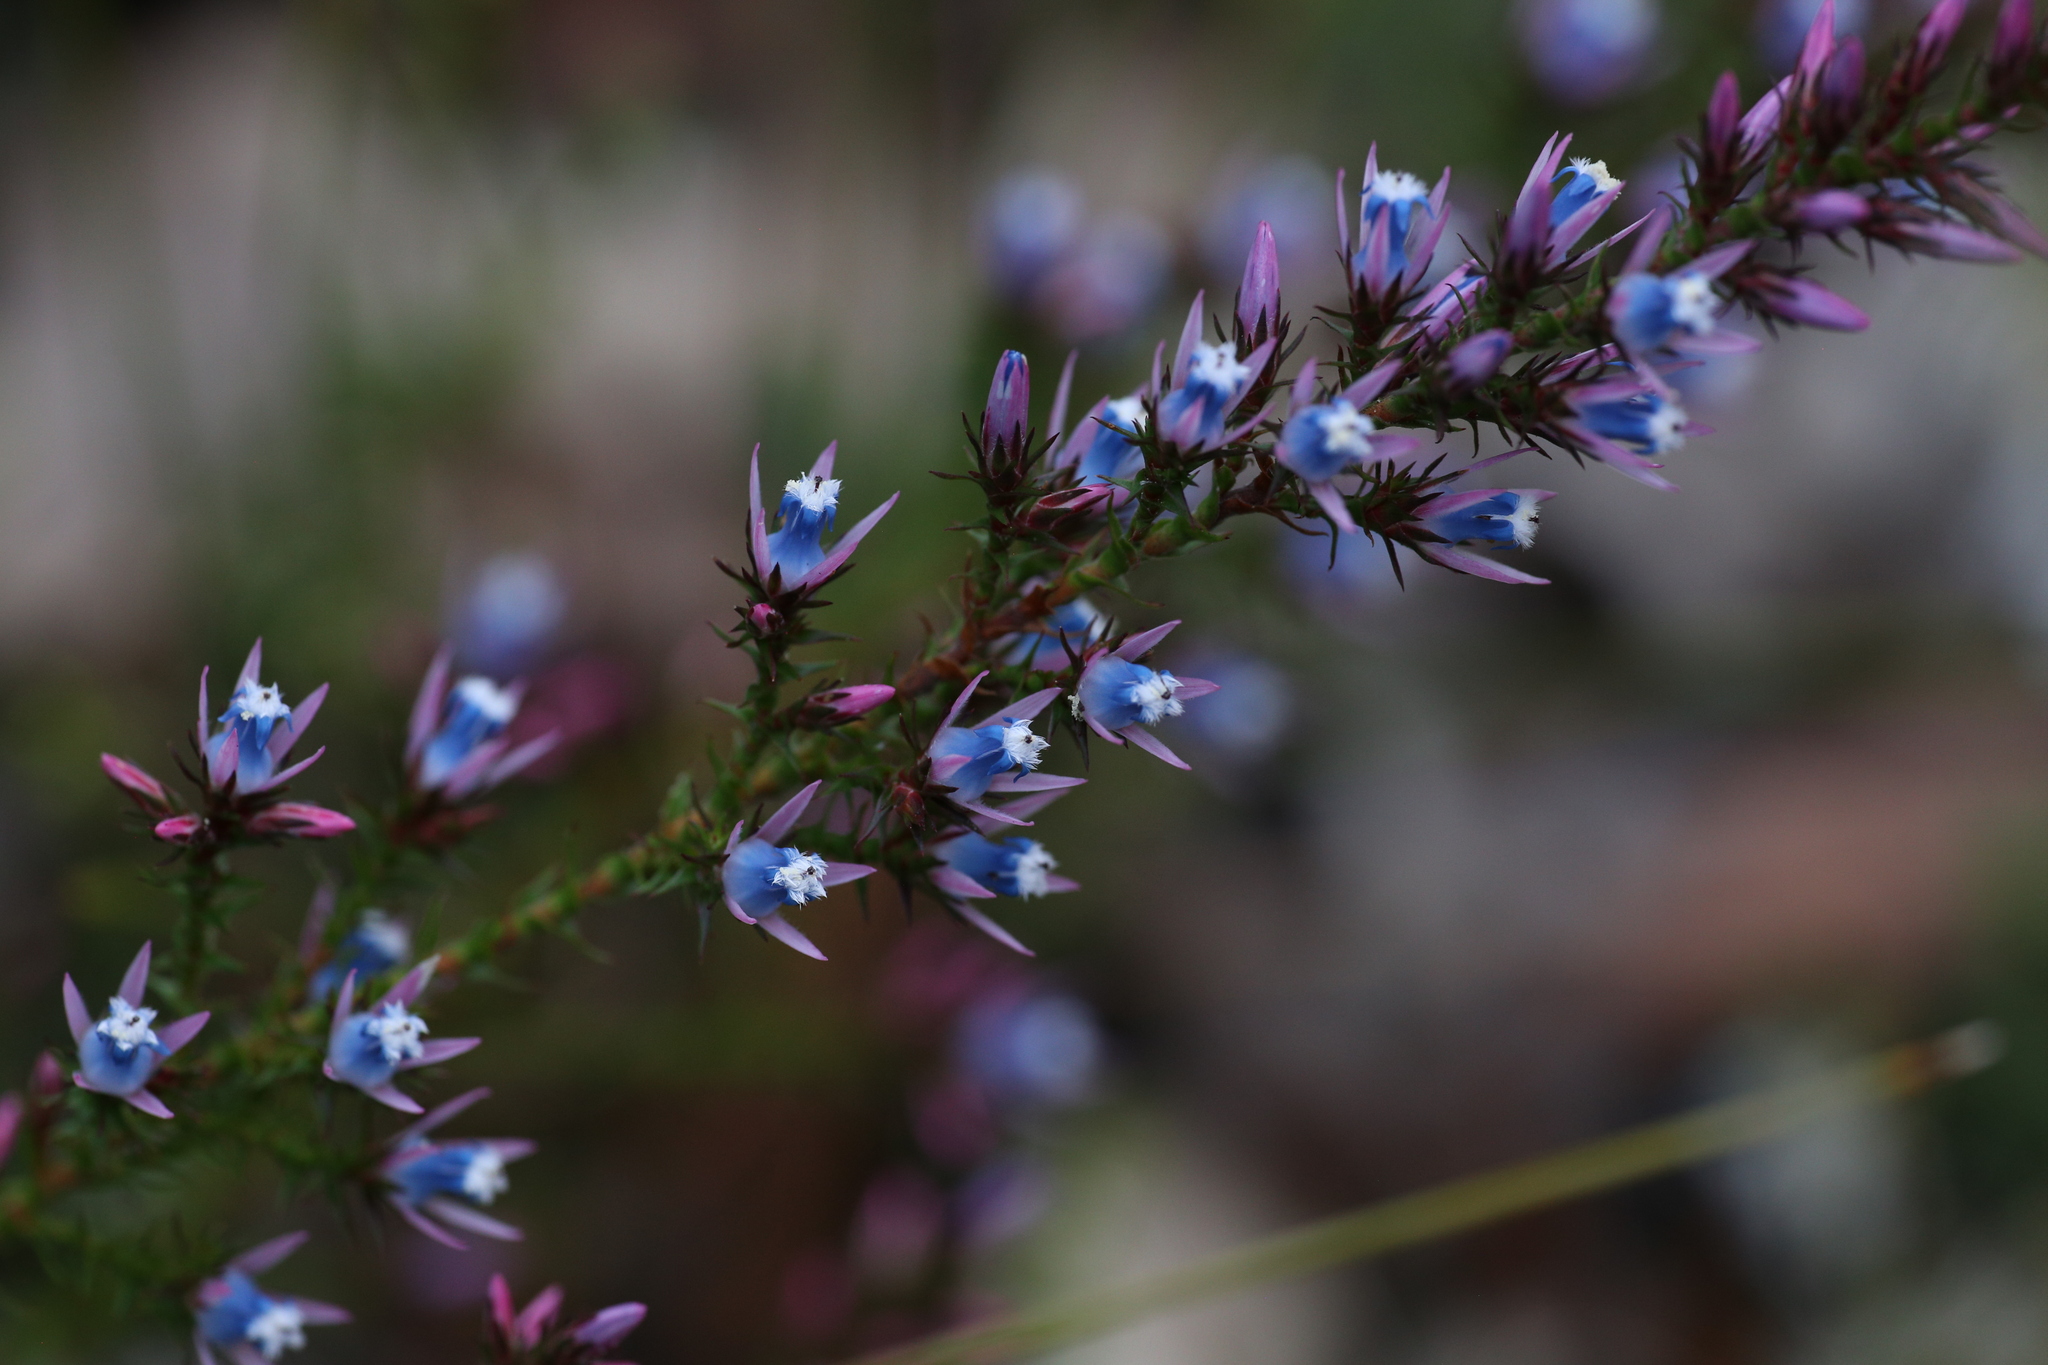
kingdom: Plantae
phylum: Tracheophyta
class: Magnoliopsida
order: Ericales
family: Ericaceae
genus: Andersonia
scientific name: Andersonia caerulea
